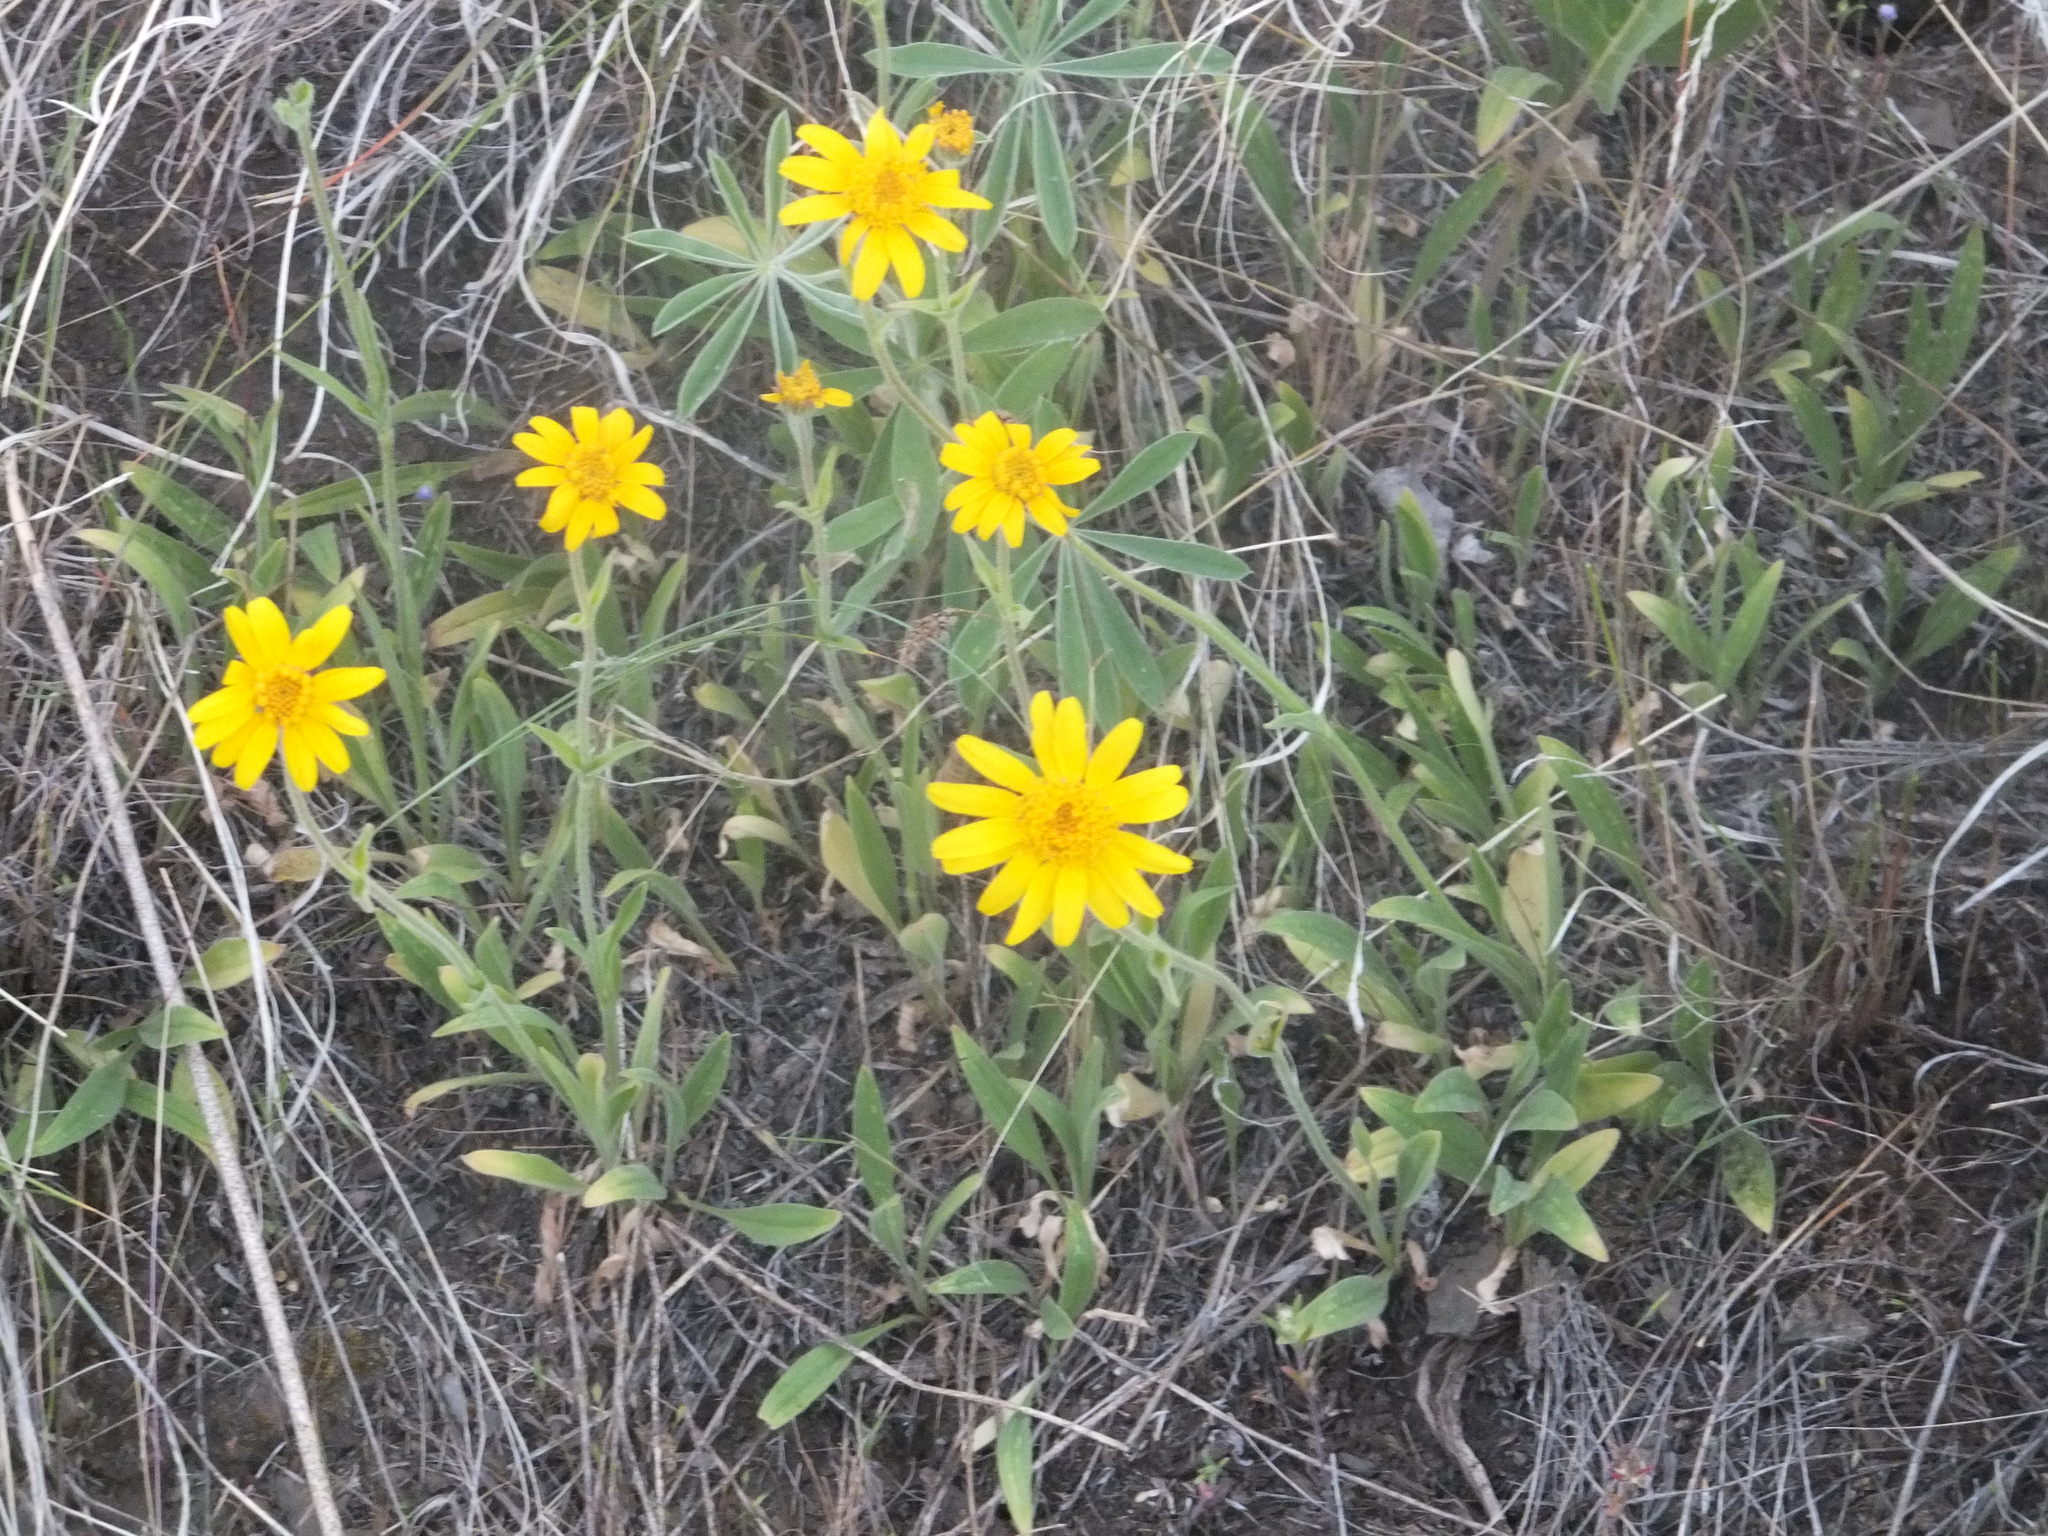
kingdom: Plantae
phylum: Tracheophyta
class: Magnoliopsida
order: Asterales
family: Asteraceae
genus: Arnica
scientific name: Arnica fulgens
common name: Foothill arnica
